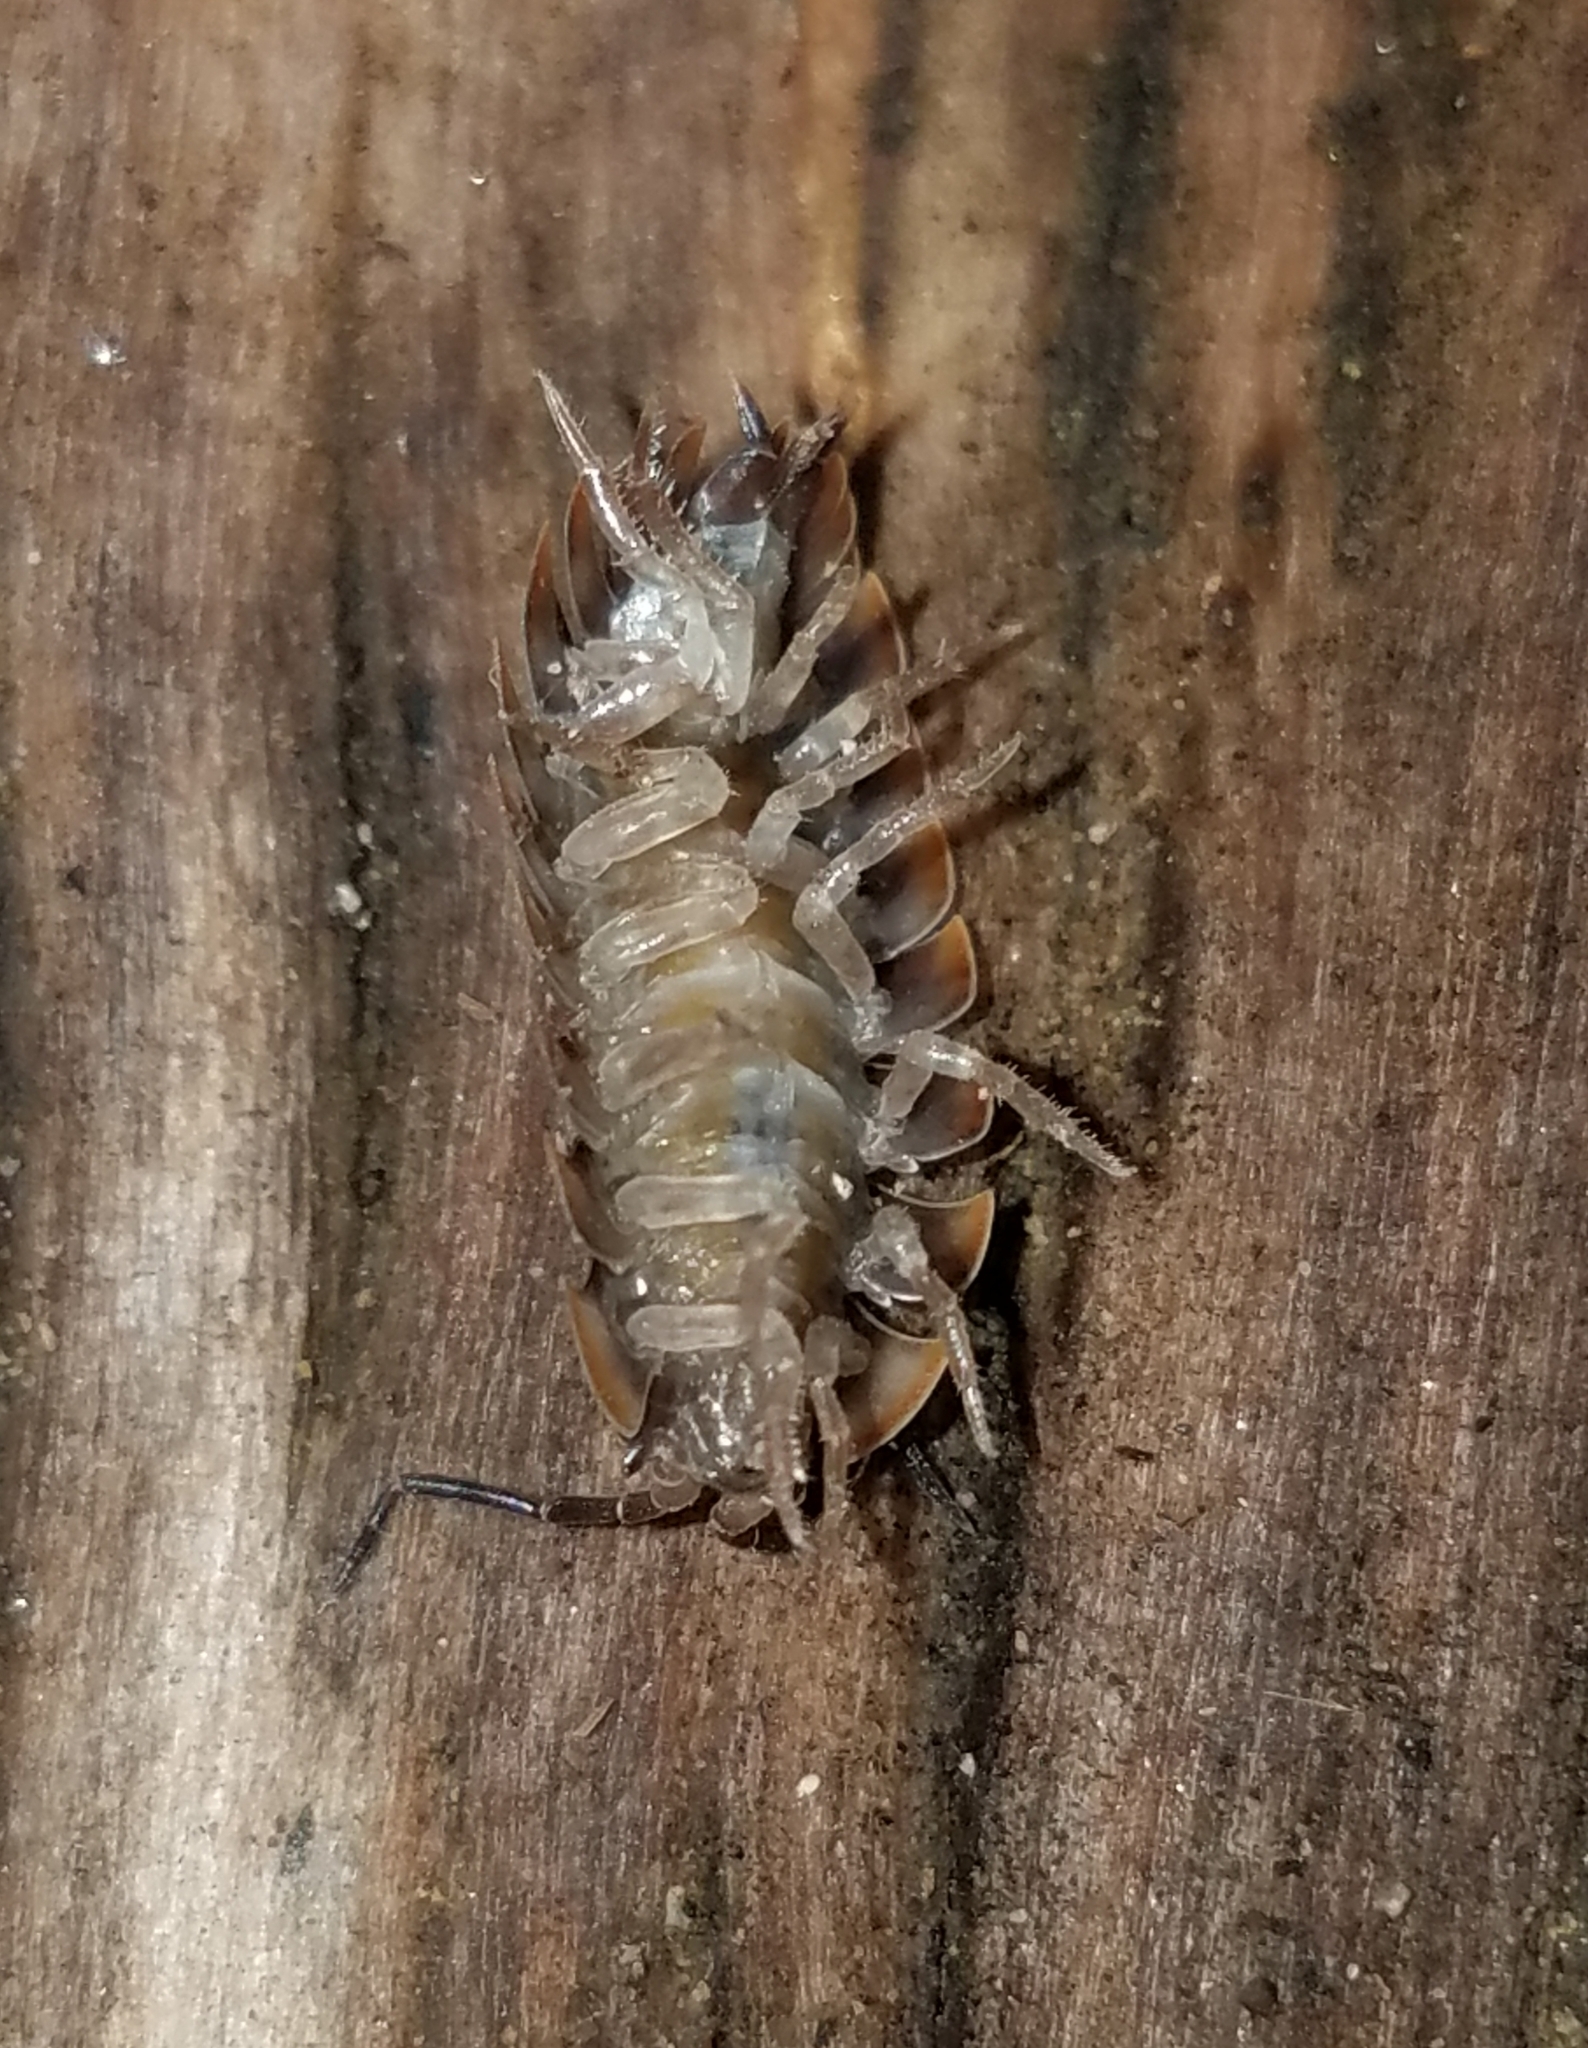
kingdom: Animalia
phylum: Arthropoda
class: Malacostraca
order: Isopoda
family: Oniscidae
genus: Oniscus
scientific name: Oniscus asellus
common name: Common shiny woodlouse
